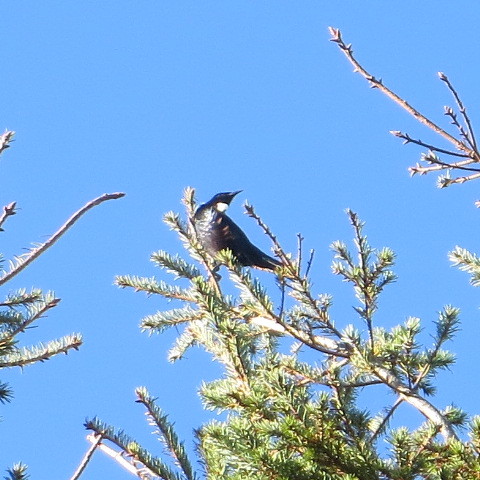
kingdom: Animalia
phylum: Chordata
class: Aves
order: Passeriformes
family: Meliphagidae
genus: Prosthemadera
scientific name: Prosthemadera novaeseelandiae
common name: Tui
